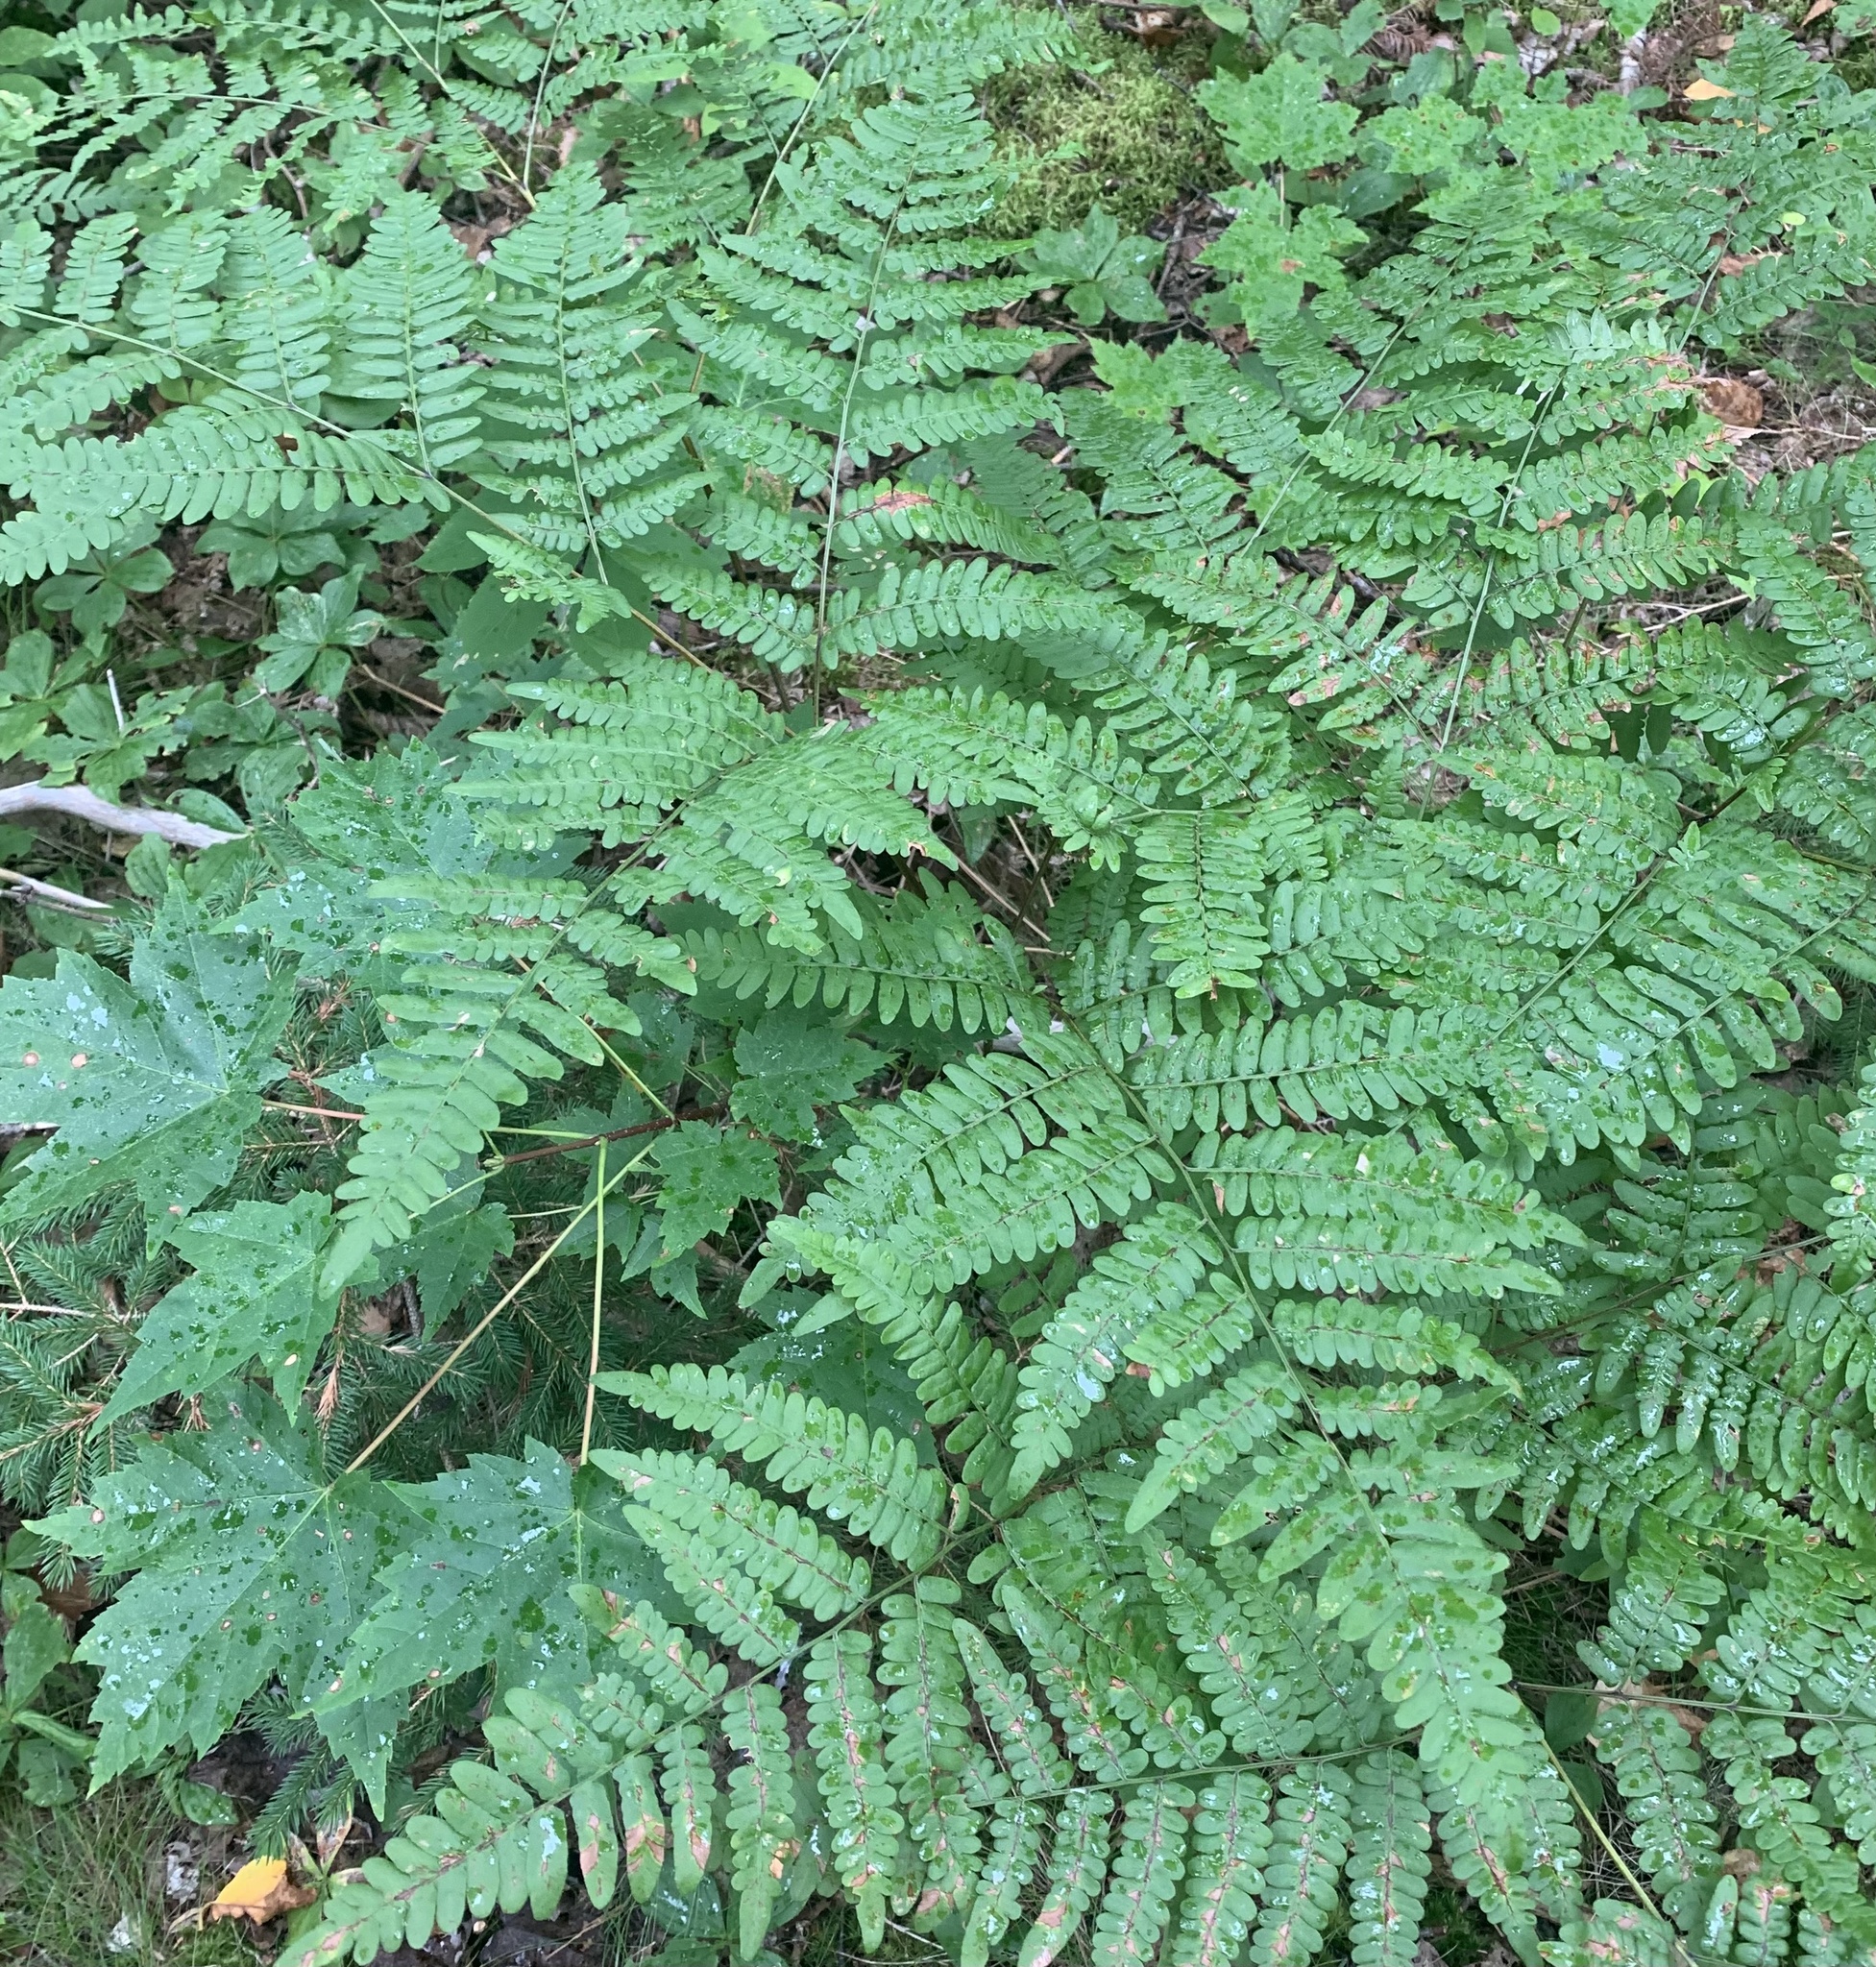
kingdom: Plantae
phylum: Tracheophyta
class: Polypodiopsida
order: Polypodiales
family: Dennstaedtiaceae
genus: Pteridium
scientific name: Pteridium aquilinum
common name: Bracken
